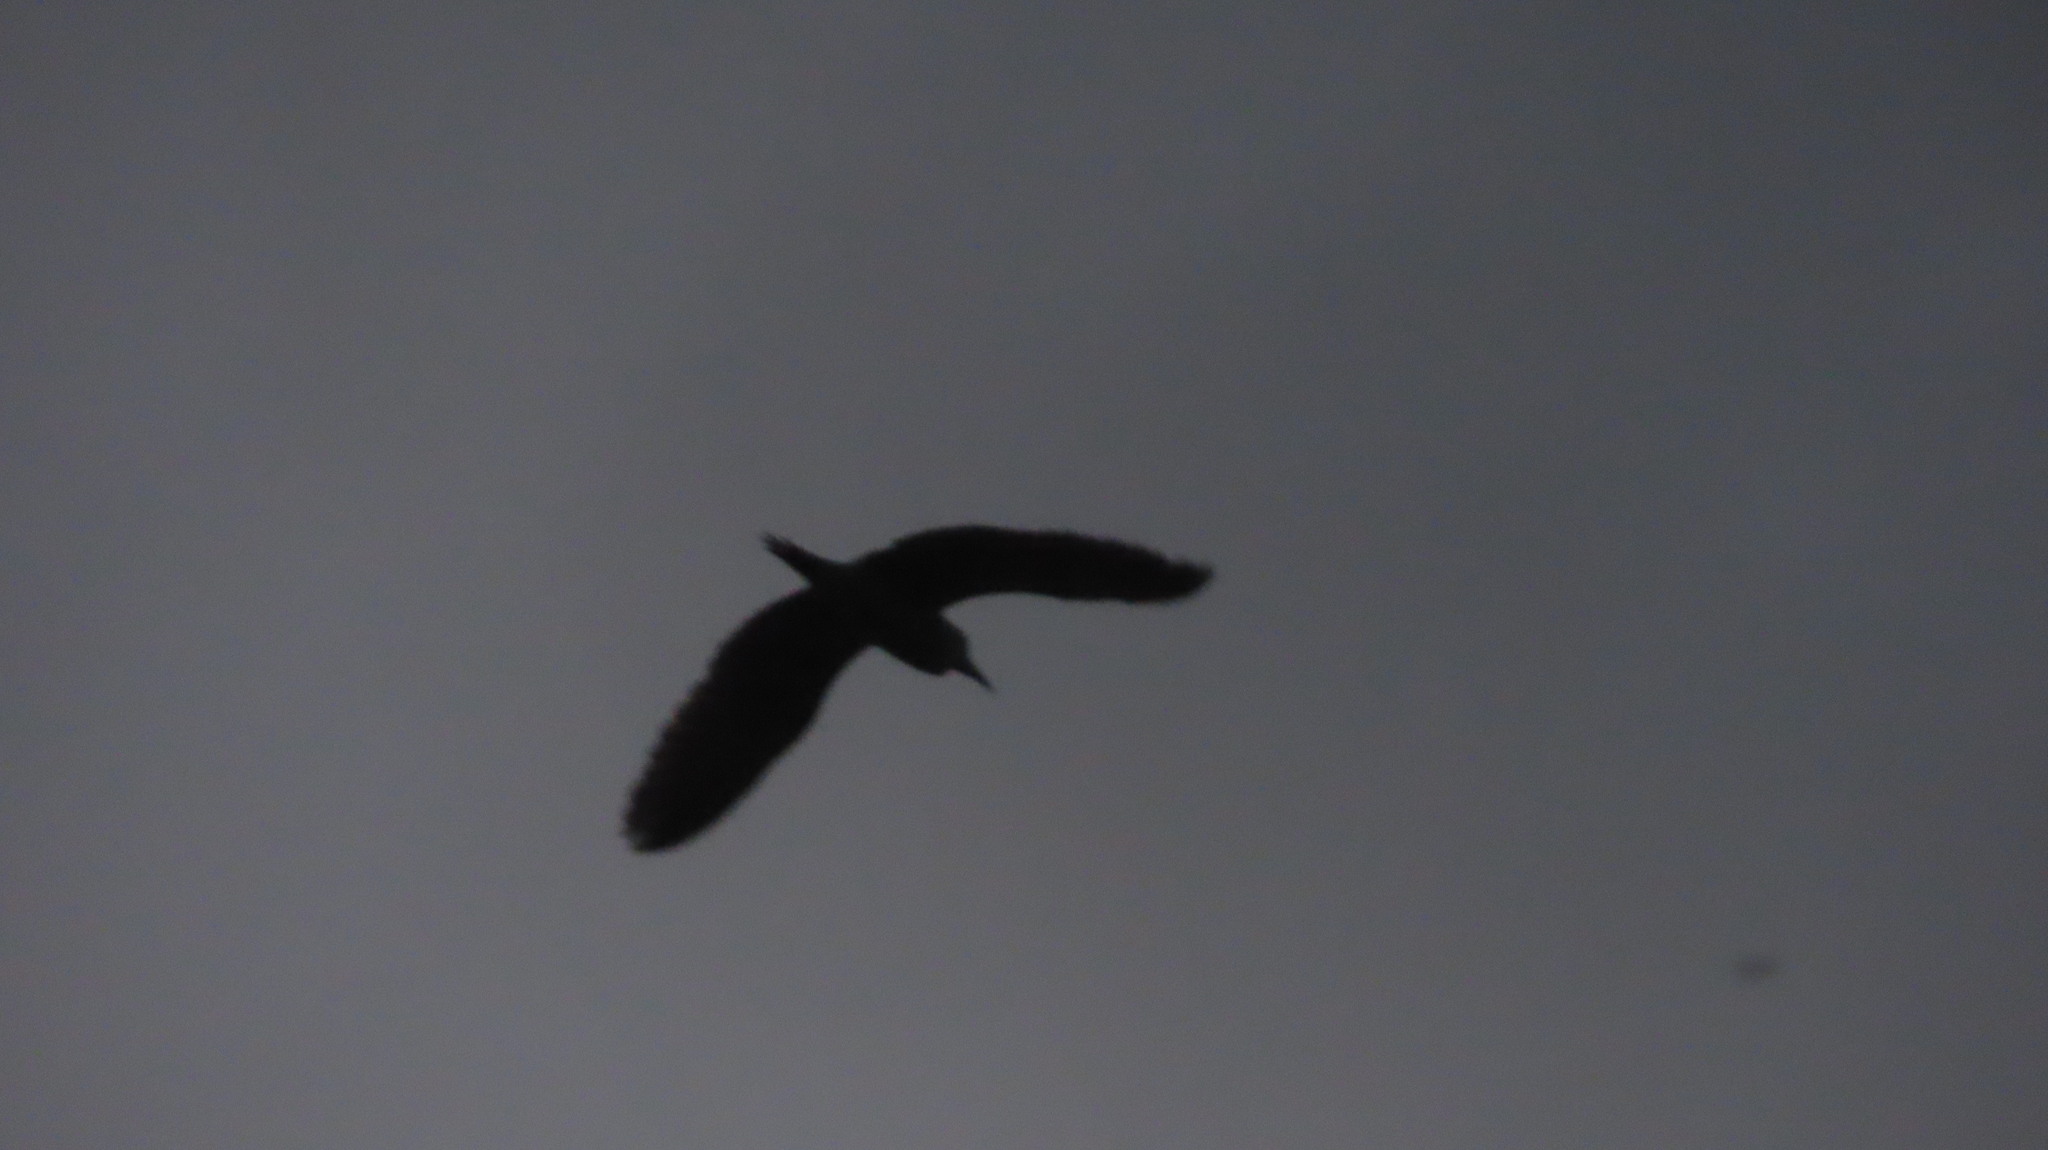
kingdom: Animalia
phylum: Chordata
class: Aves
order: Pelecaniformes
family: Ardeidae
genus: Nycticorax
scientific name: Nycticorax nycticorax
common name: Black-crowned night heron
